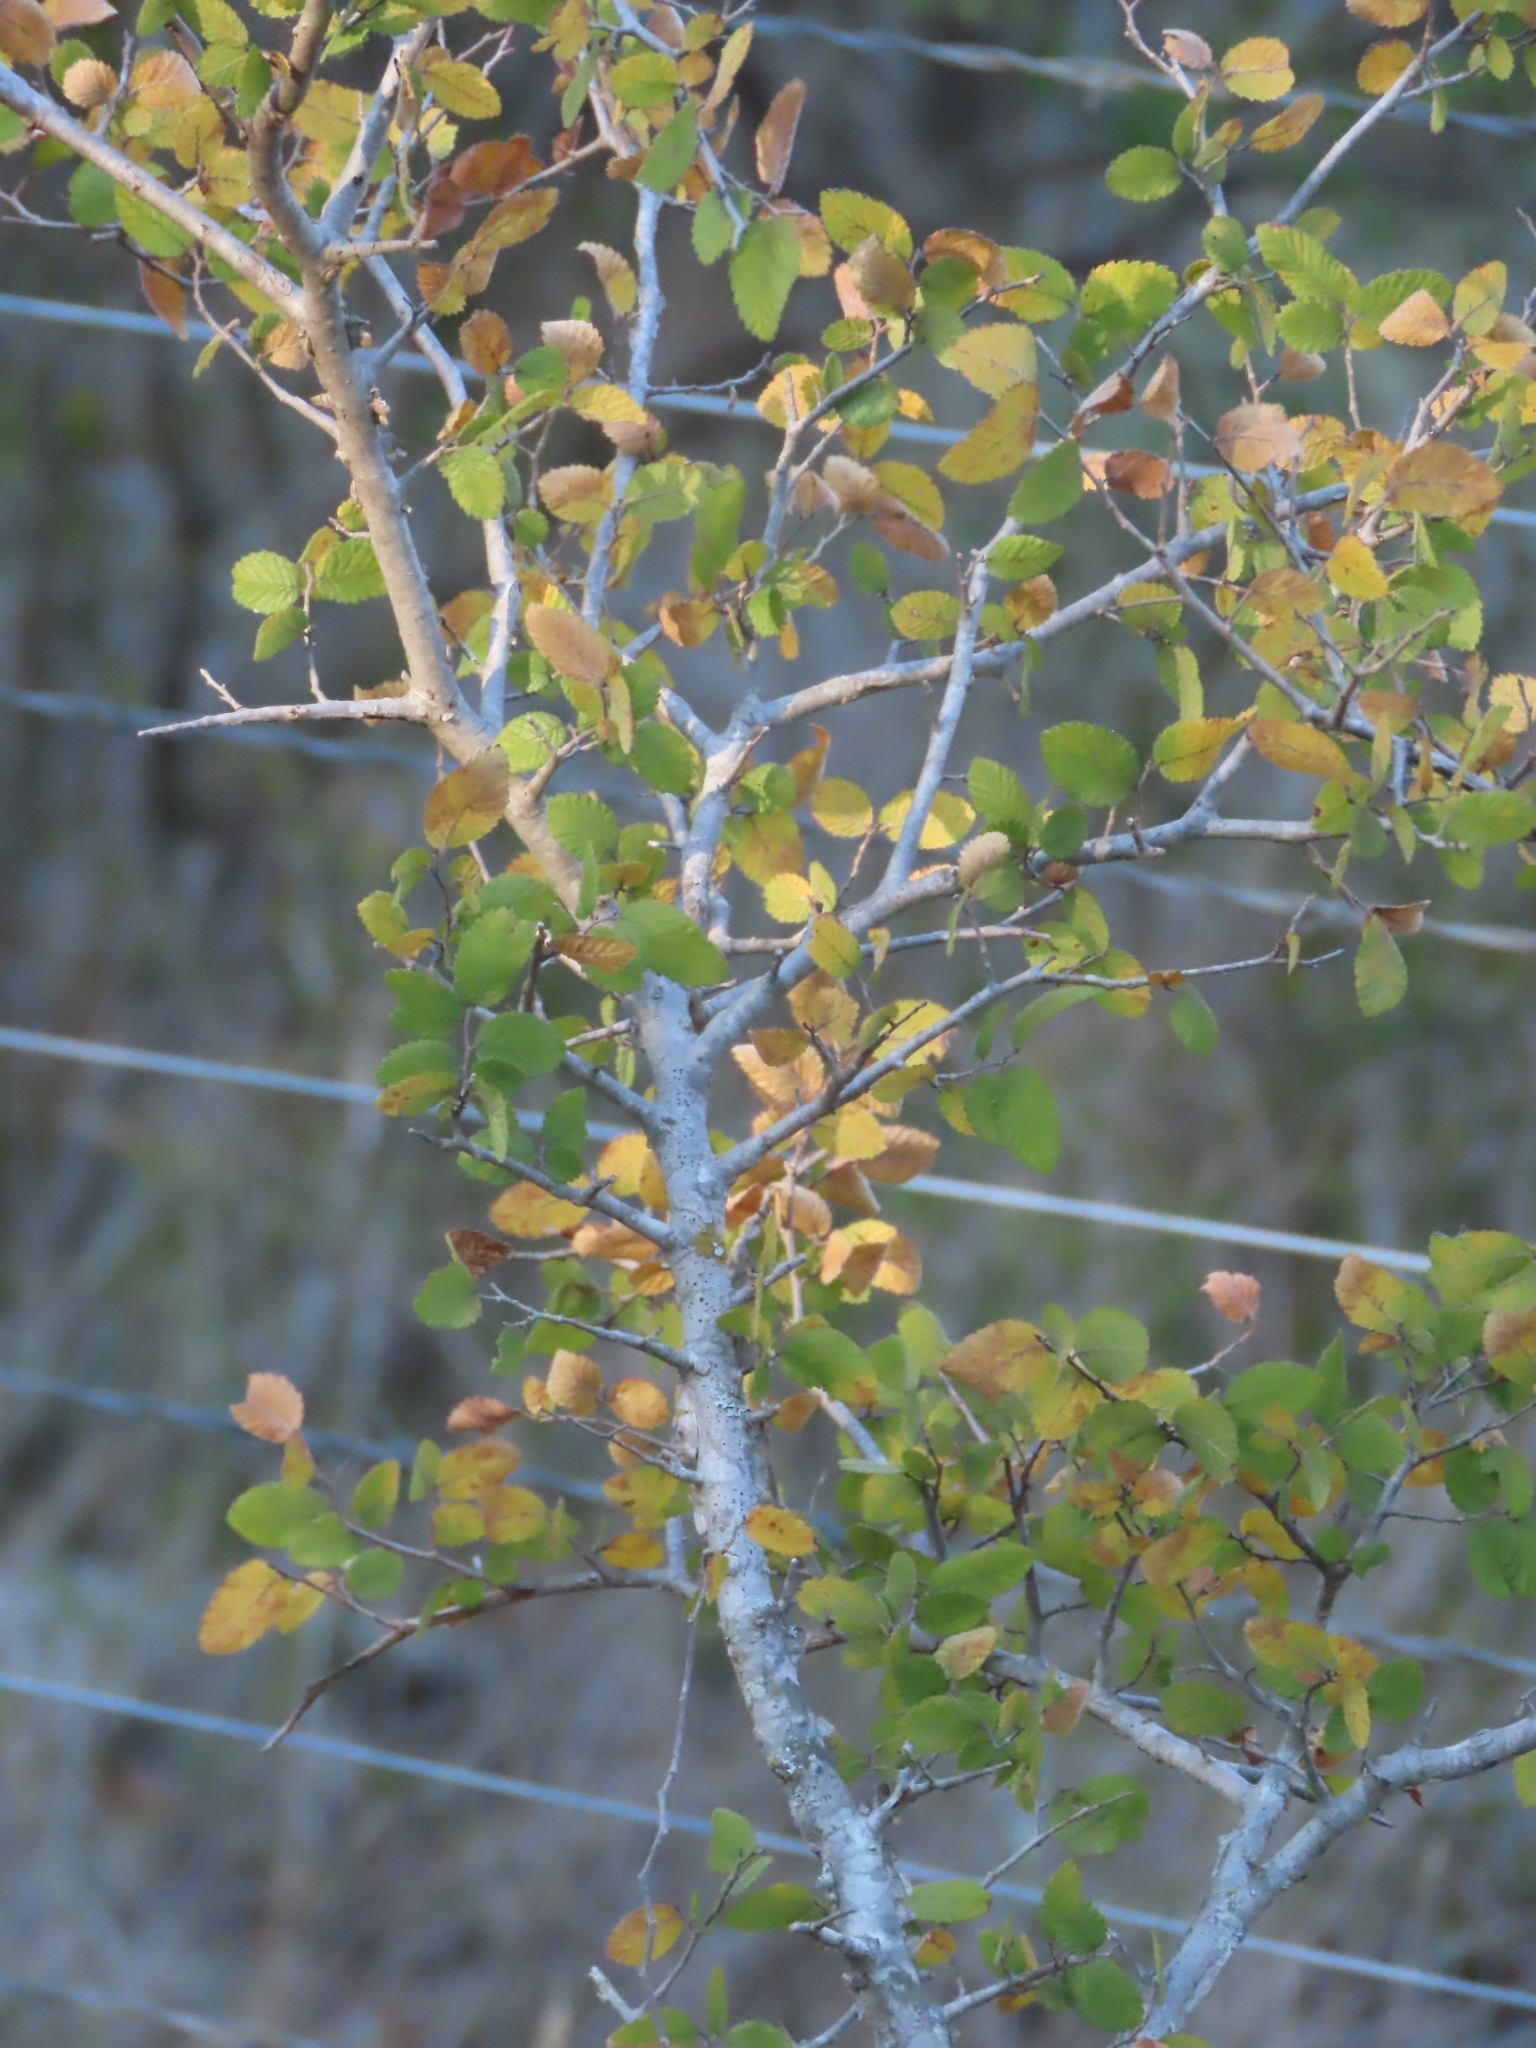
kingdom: Plantae
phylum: Tracheophyta
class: Magnoliopsida
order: Rosales
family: Ulmaceae
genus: Ulmus
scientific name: Ulmus crassifolia
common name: Basket elm
